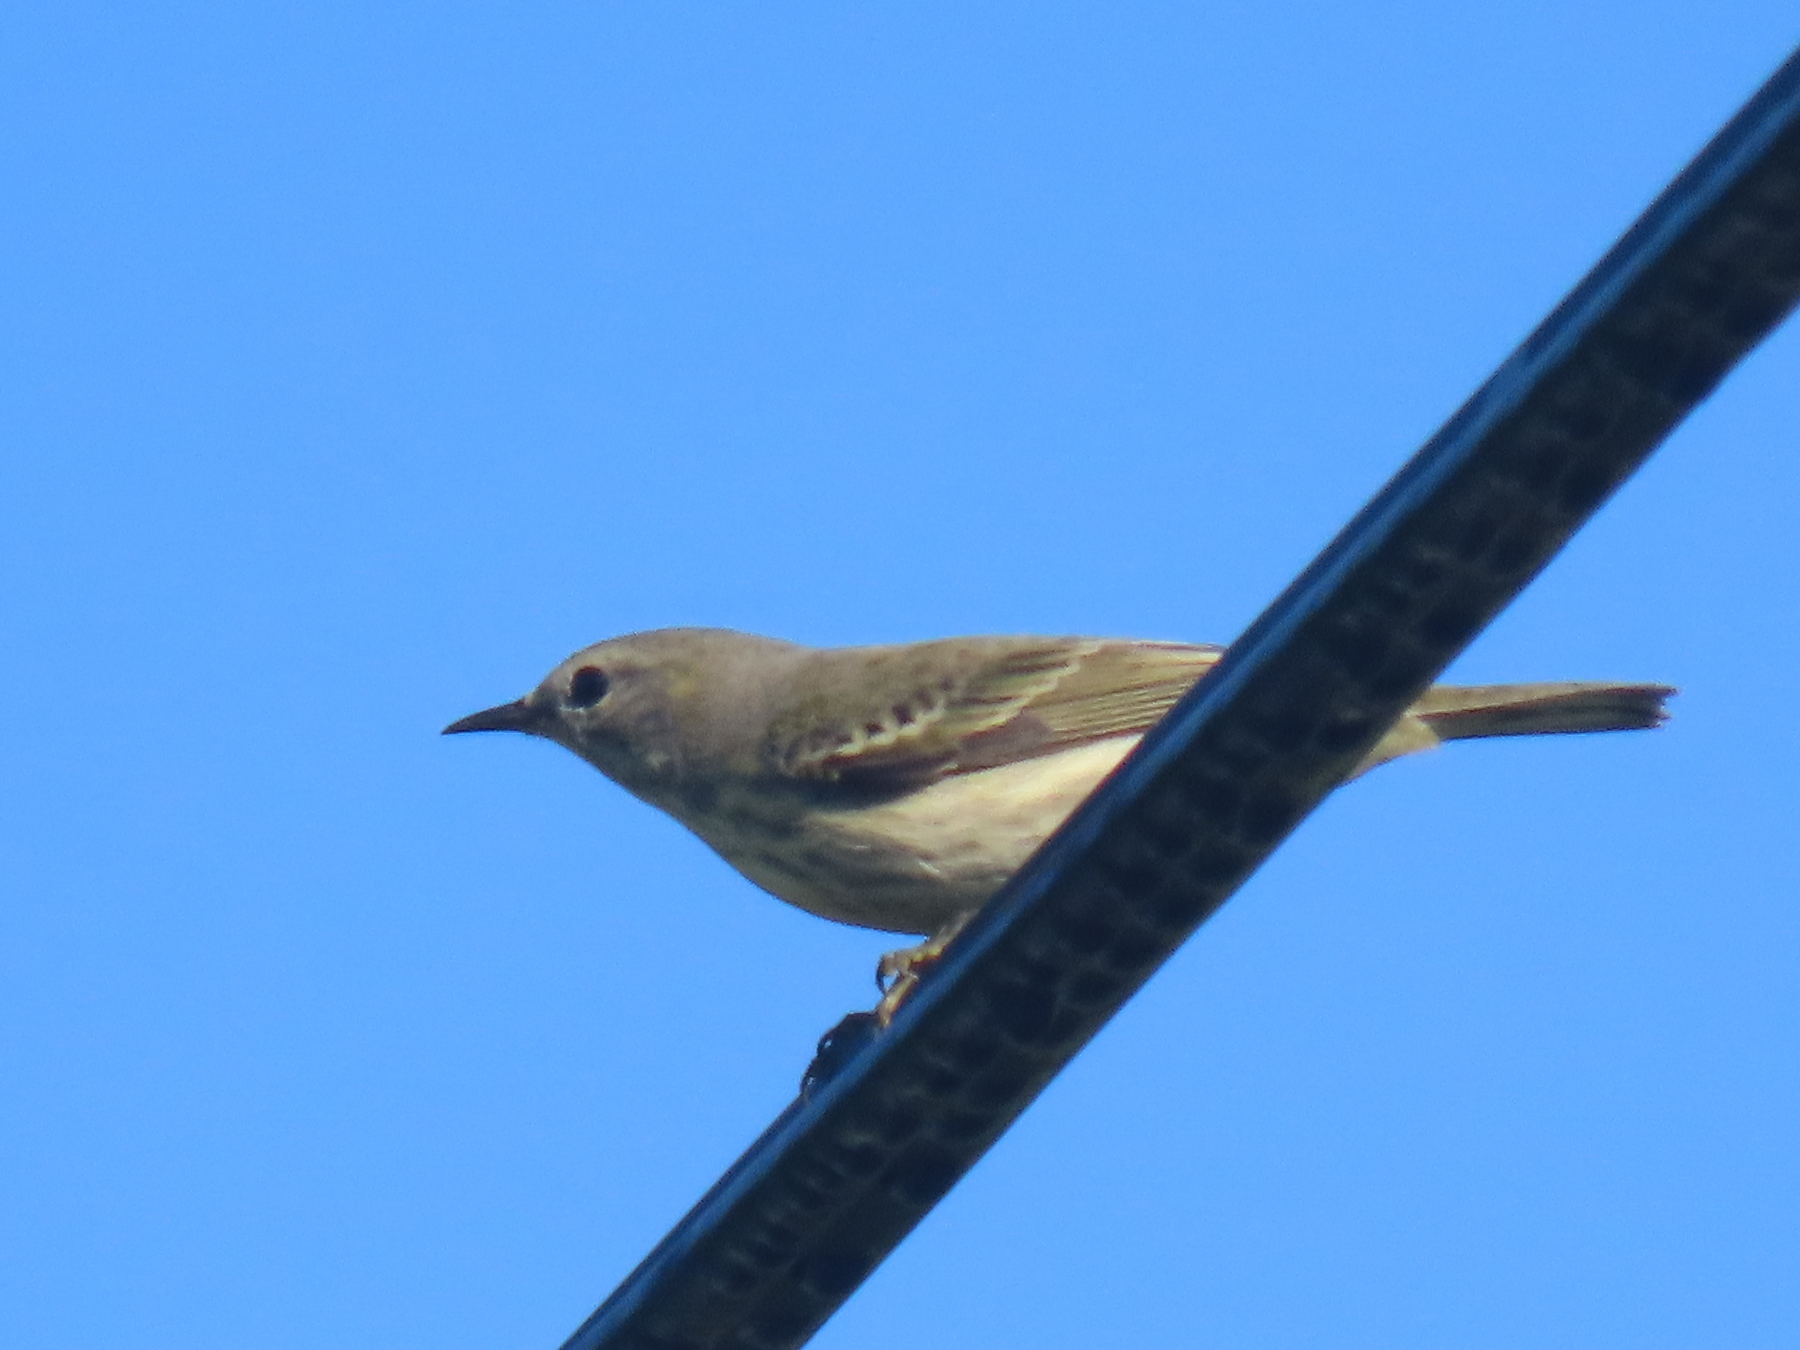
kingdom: Animalia
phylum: Chordata
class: Aves
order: Passeriformes
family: Parulidae
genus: Setophaga
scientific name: Setophaga tigrina
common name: Cape may warbler
